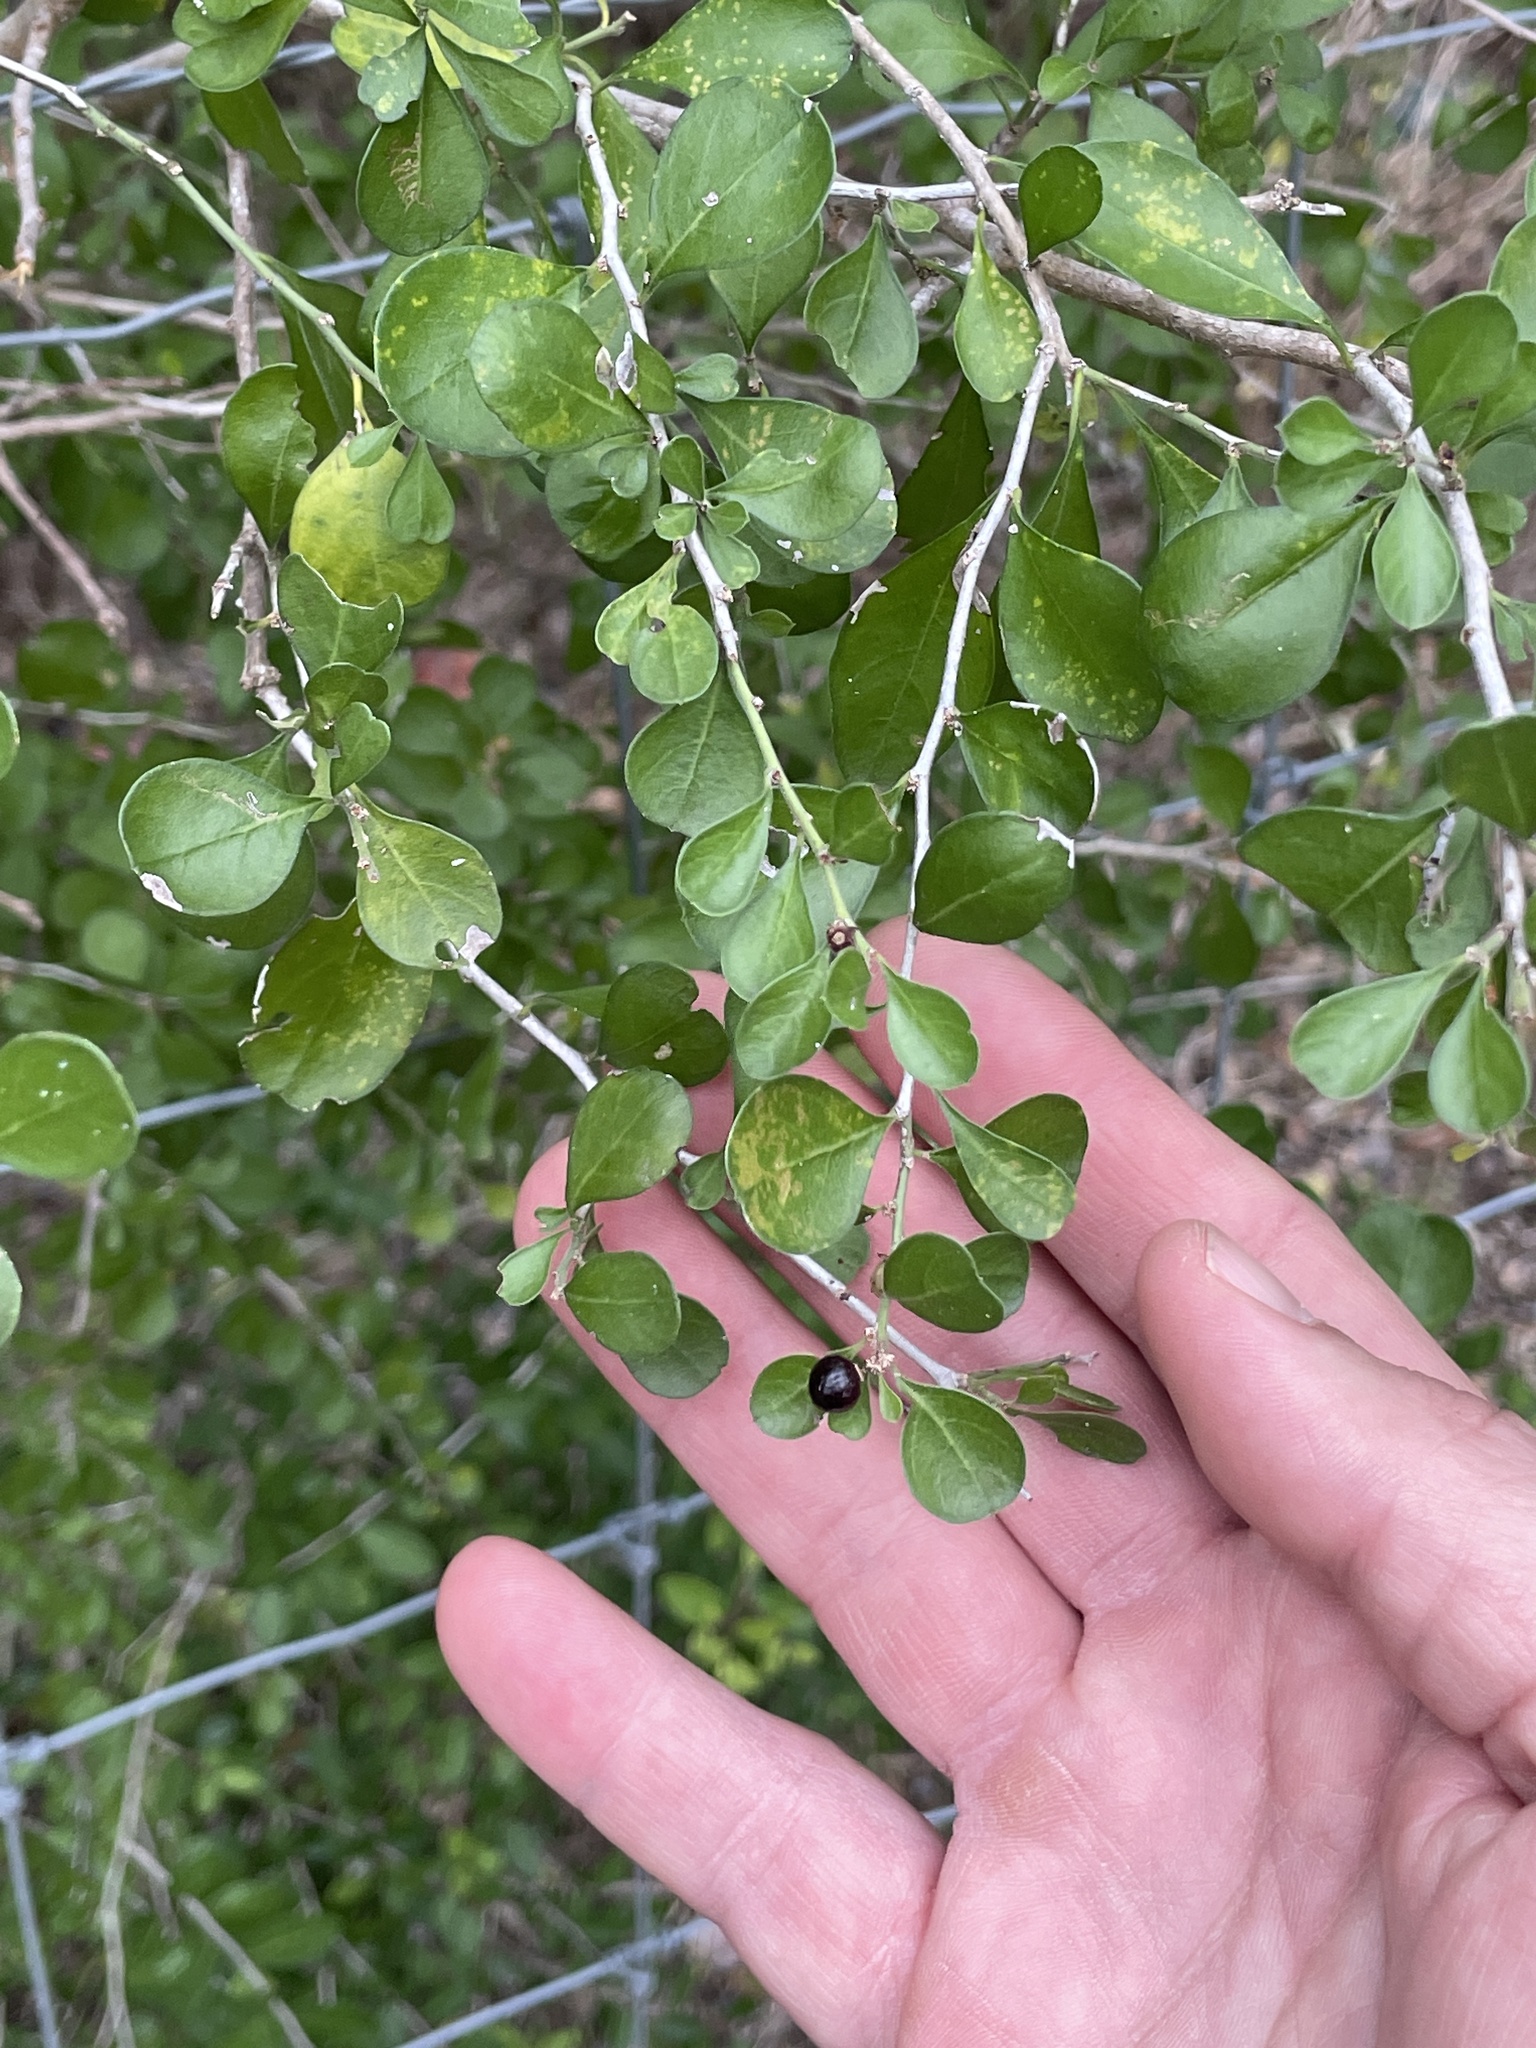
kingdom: Plantae
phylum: Tracheophyta
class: Magnoliopsida
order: Rosales
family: Rhamnaceae
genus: Condalia
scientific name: Condalia hookeri
